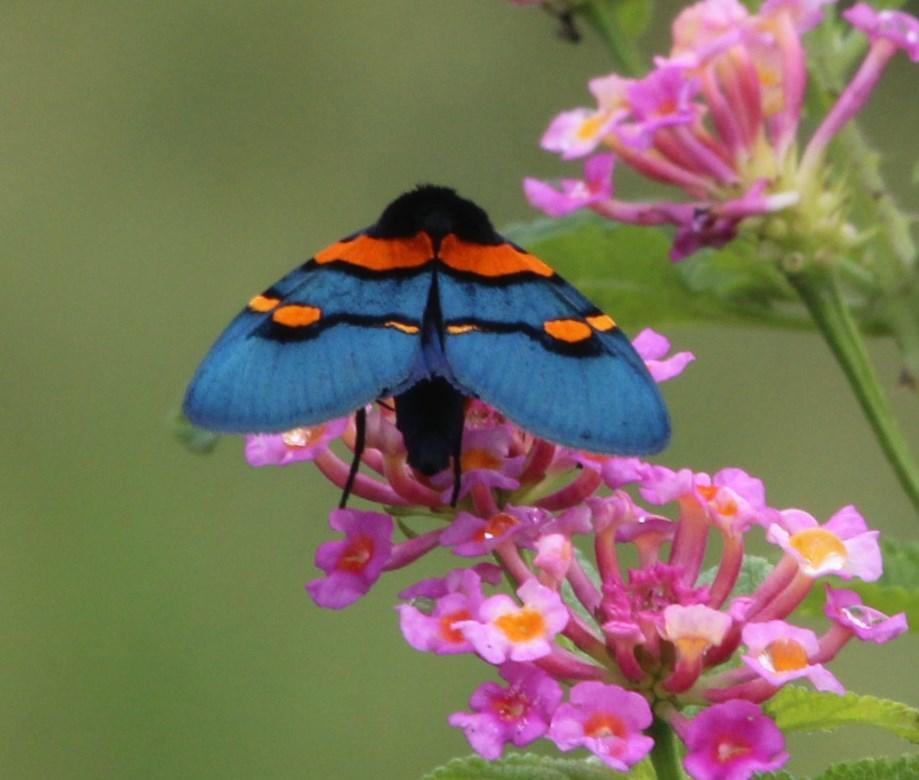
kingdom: Animalia
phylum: Arthropoda
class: Insecta
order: Lepidoptera
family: Erebidae
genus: Egybolis
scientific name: Egybolis vaillantina
